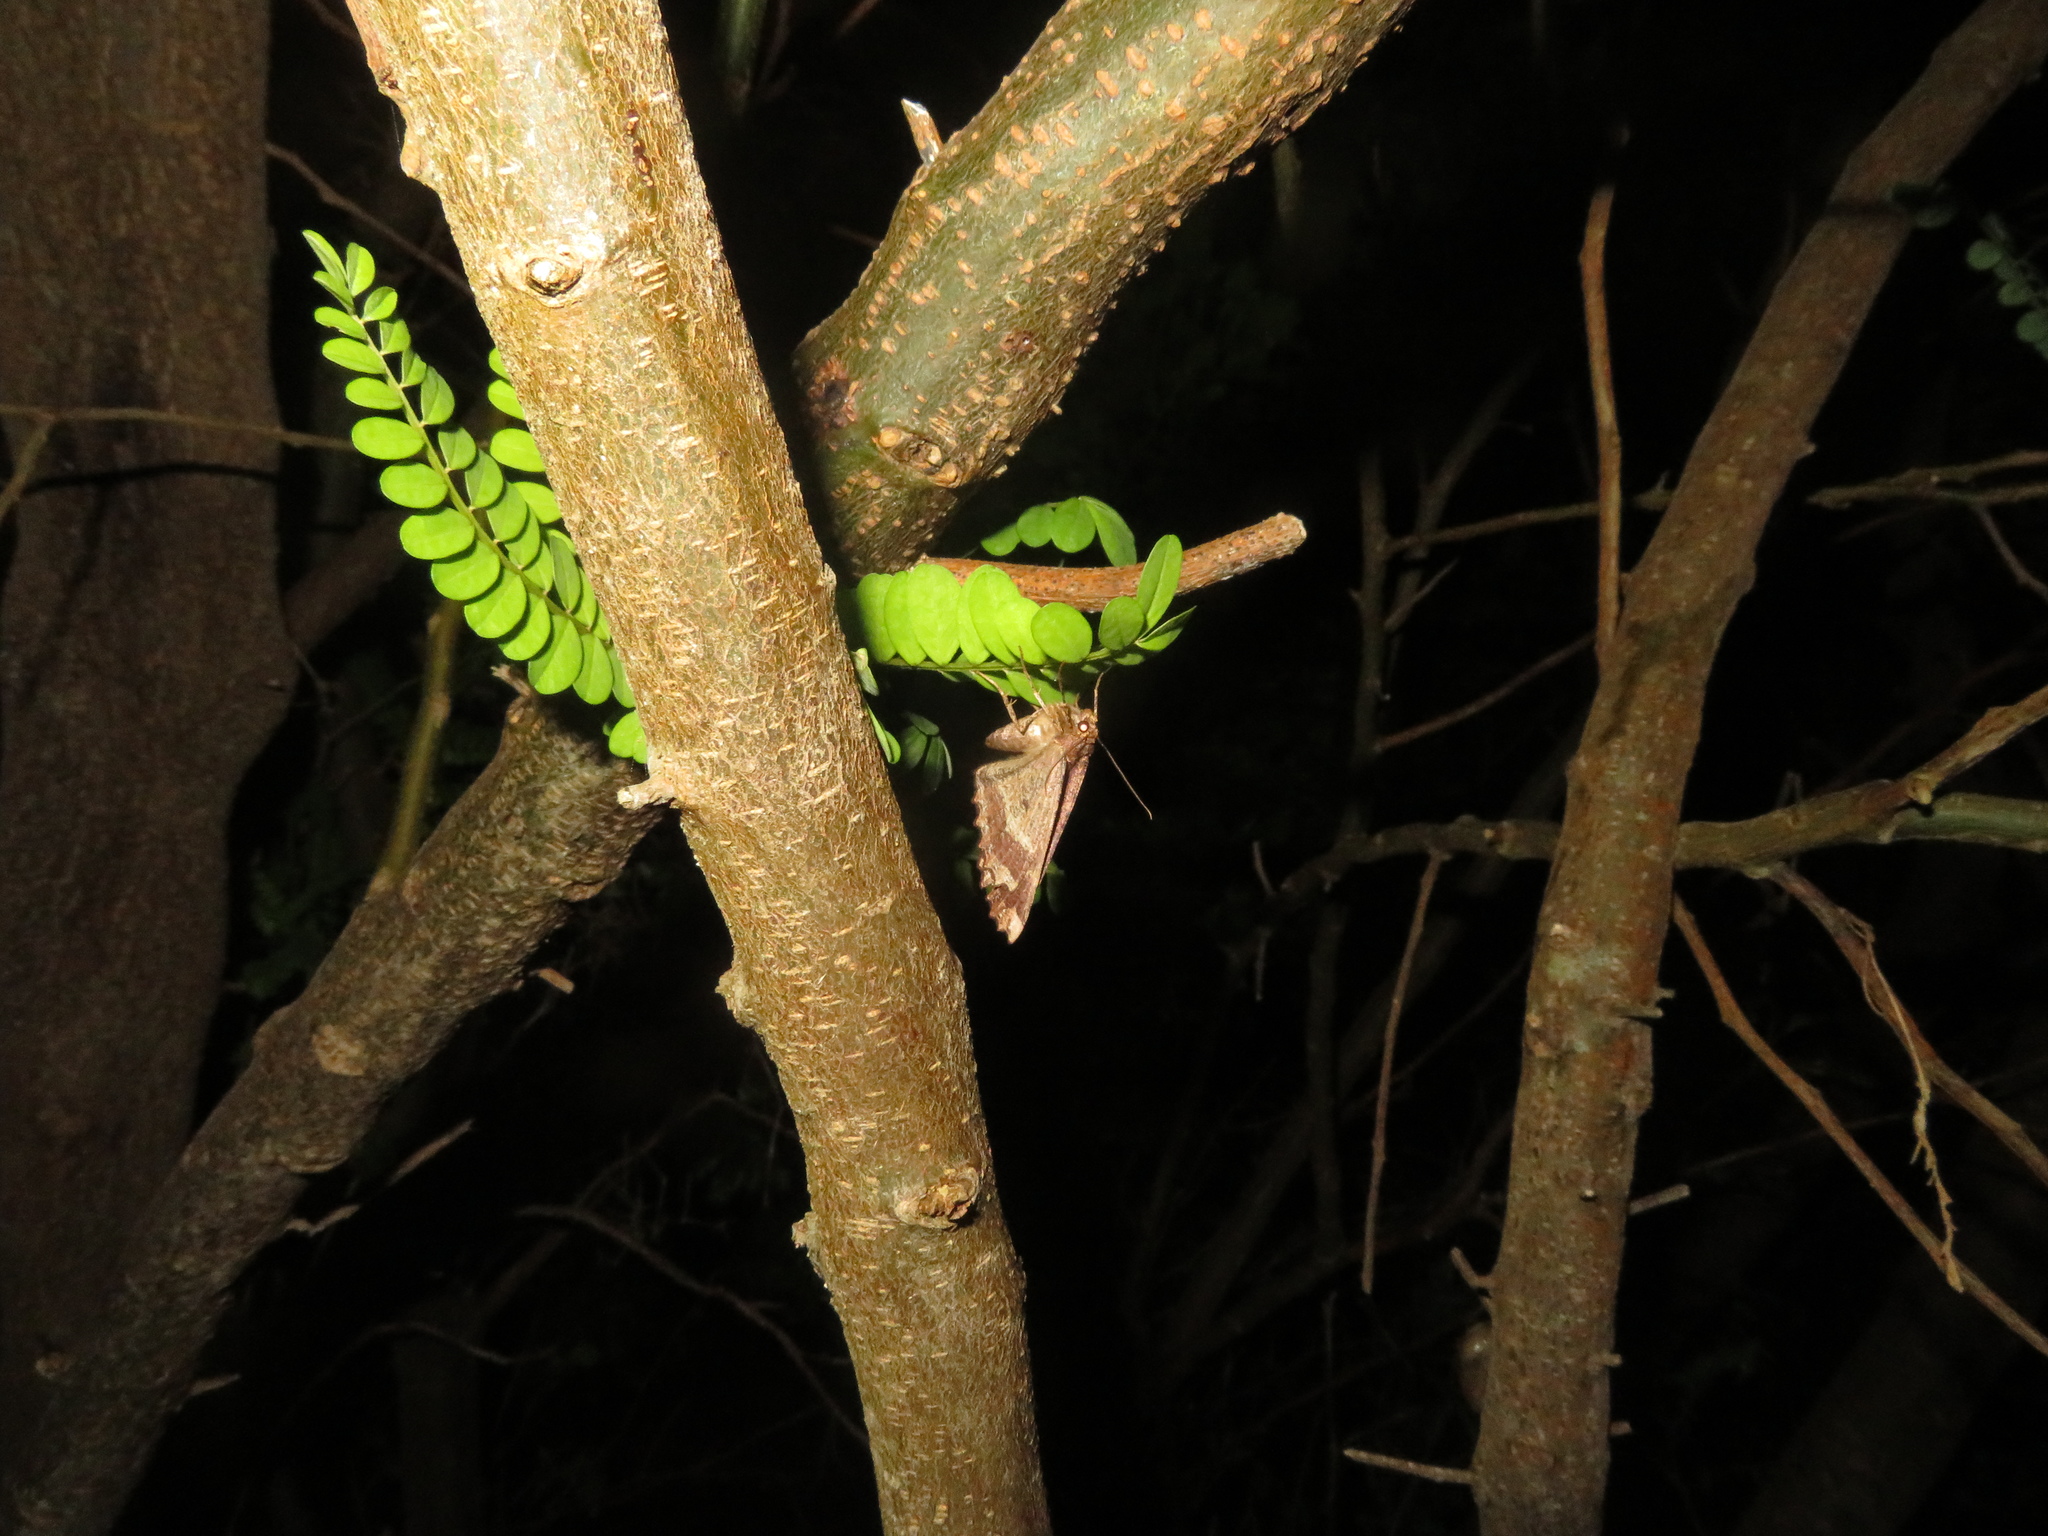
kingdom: Animalia
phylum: Arthropoda
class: Insecta
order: Lepidoptera
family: Geometridae
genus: Gellonia
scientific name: Gellonia dejectaria
